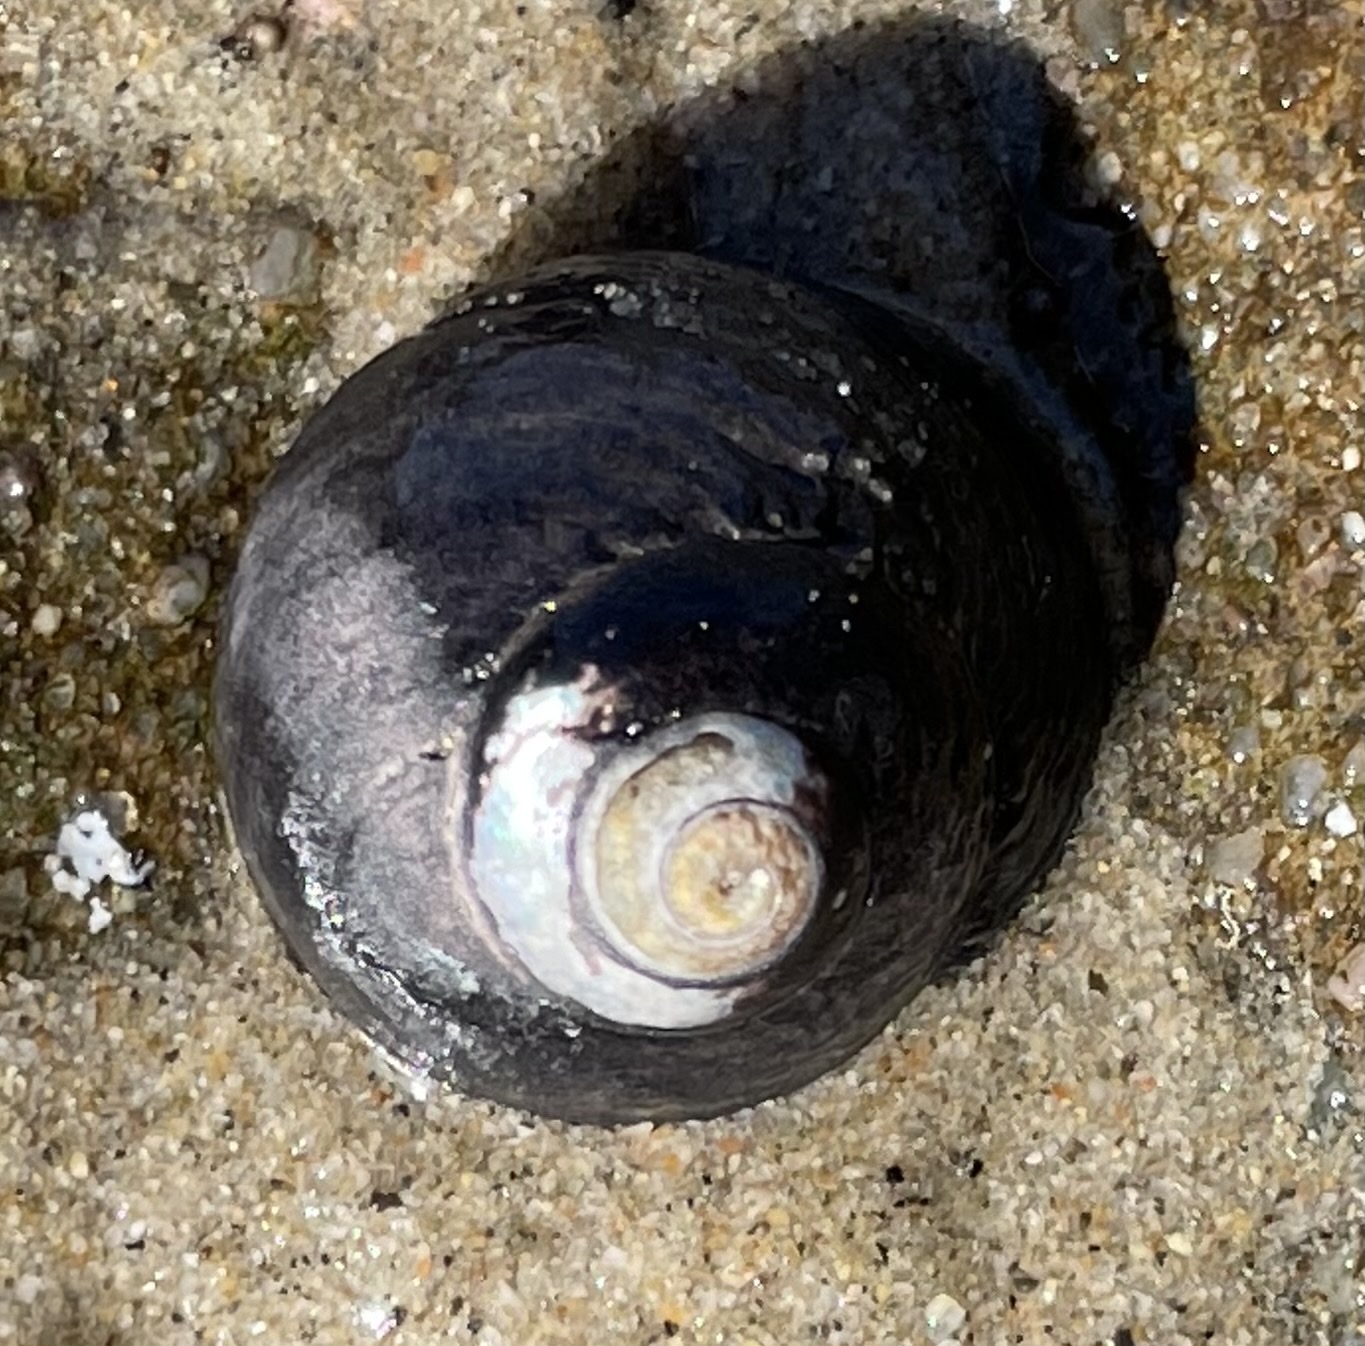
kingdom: Animalia
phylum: Mollusca
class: Gastropoda
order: Trochida
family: Tegulidae
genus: Tegula
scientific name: Tegula funebralis
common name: Black tegula
